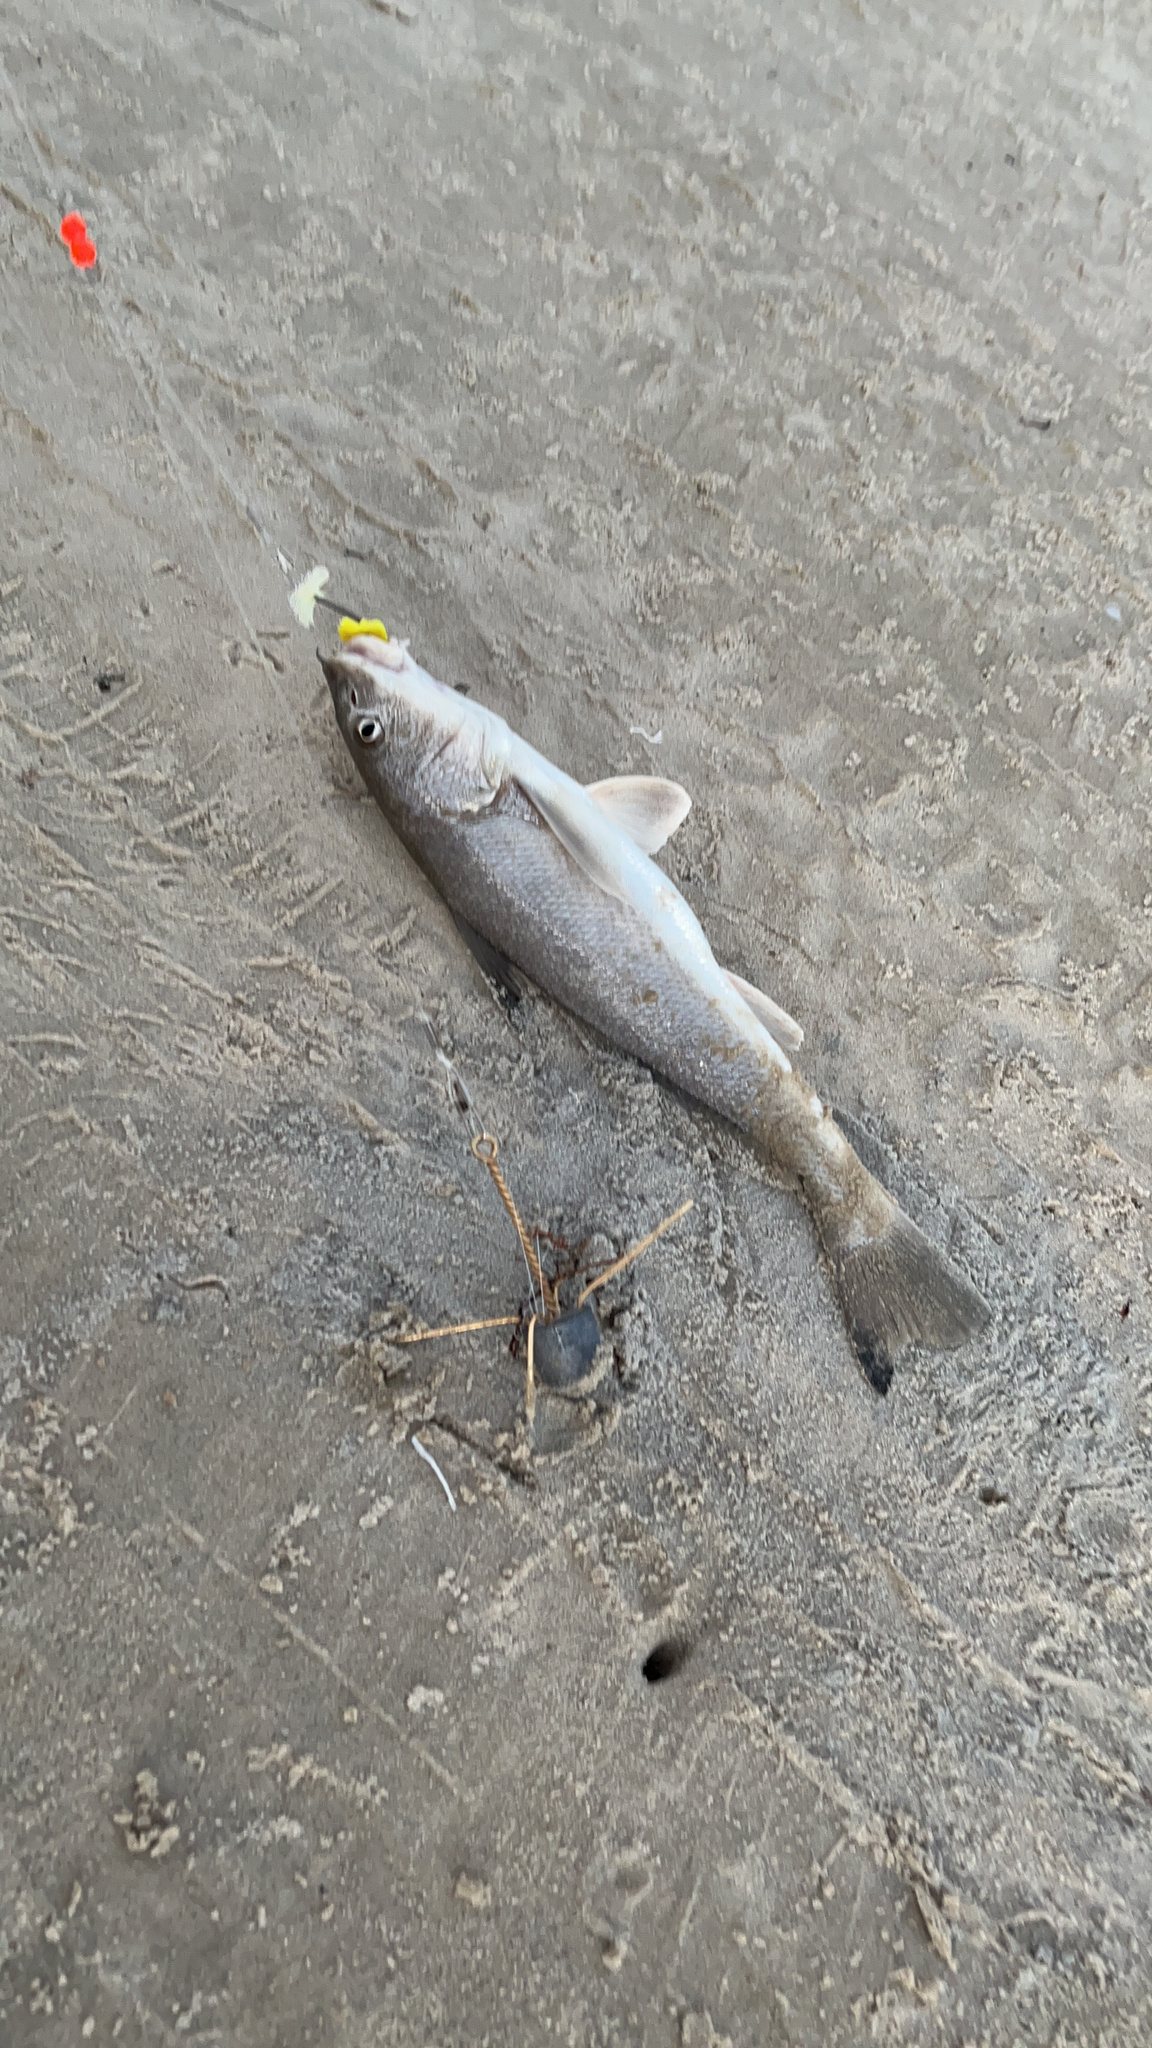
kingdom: Animalia
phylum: Chordata
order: Perciformes
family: Sciaenidae
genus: Menticirrhus
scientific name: Menticirrhus littoralis
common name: Gulf kingcroaker
